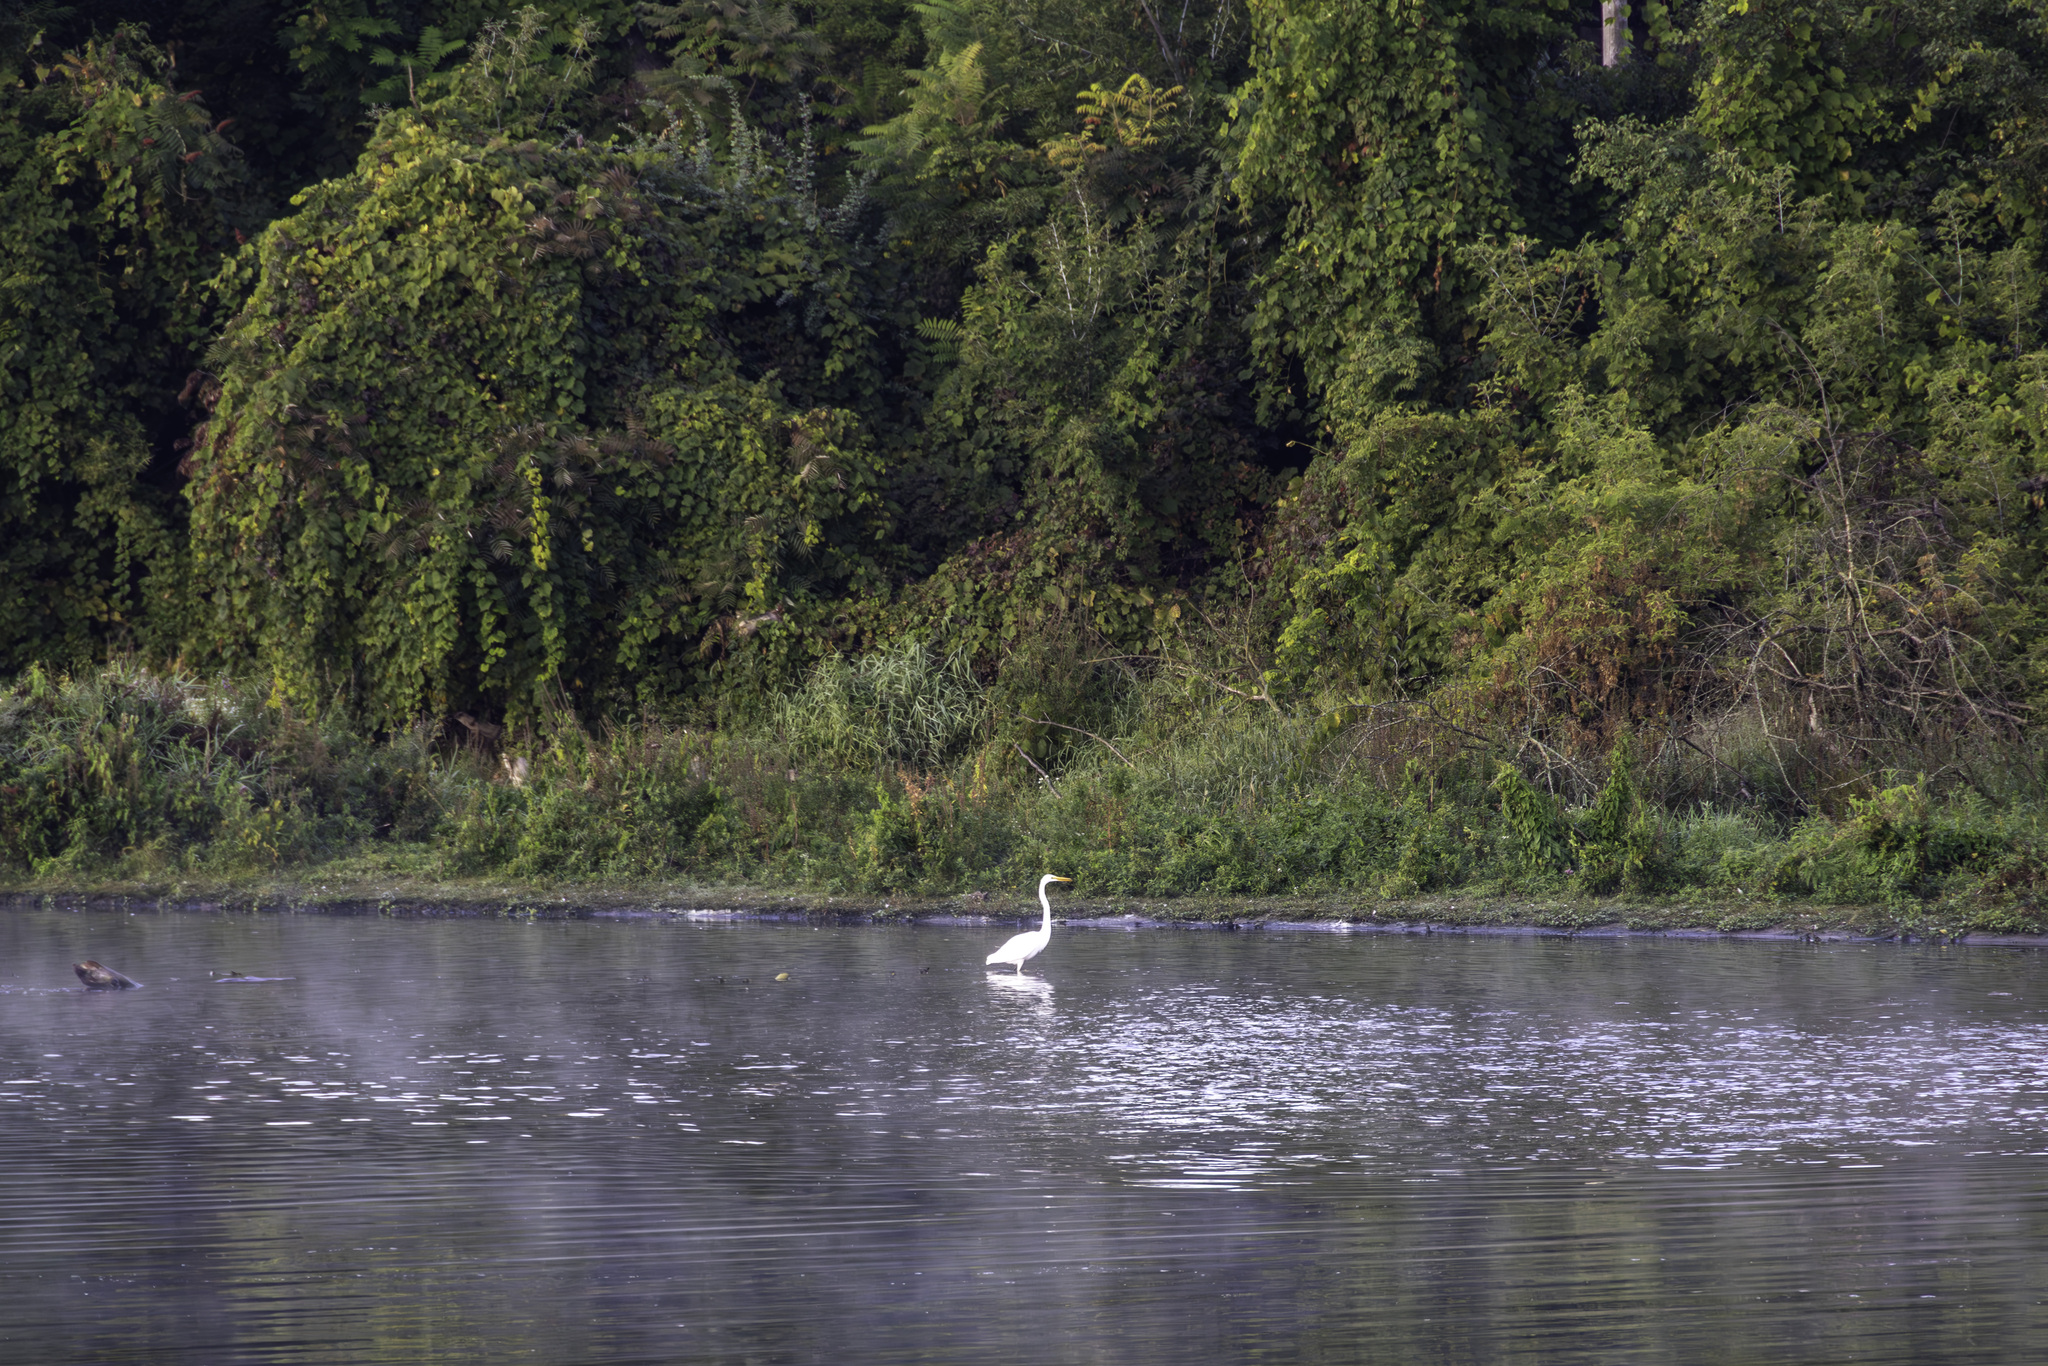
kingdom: Animalia
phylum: Chordata
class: Aves
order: Pelecaniformes
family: Ardeidae
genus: Ardea
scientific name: Ardea alba
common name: Great egret
